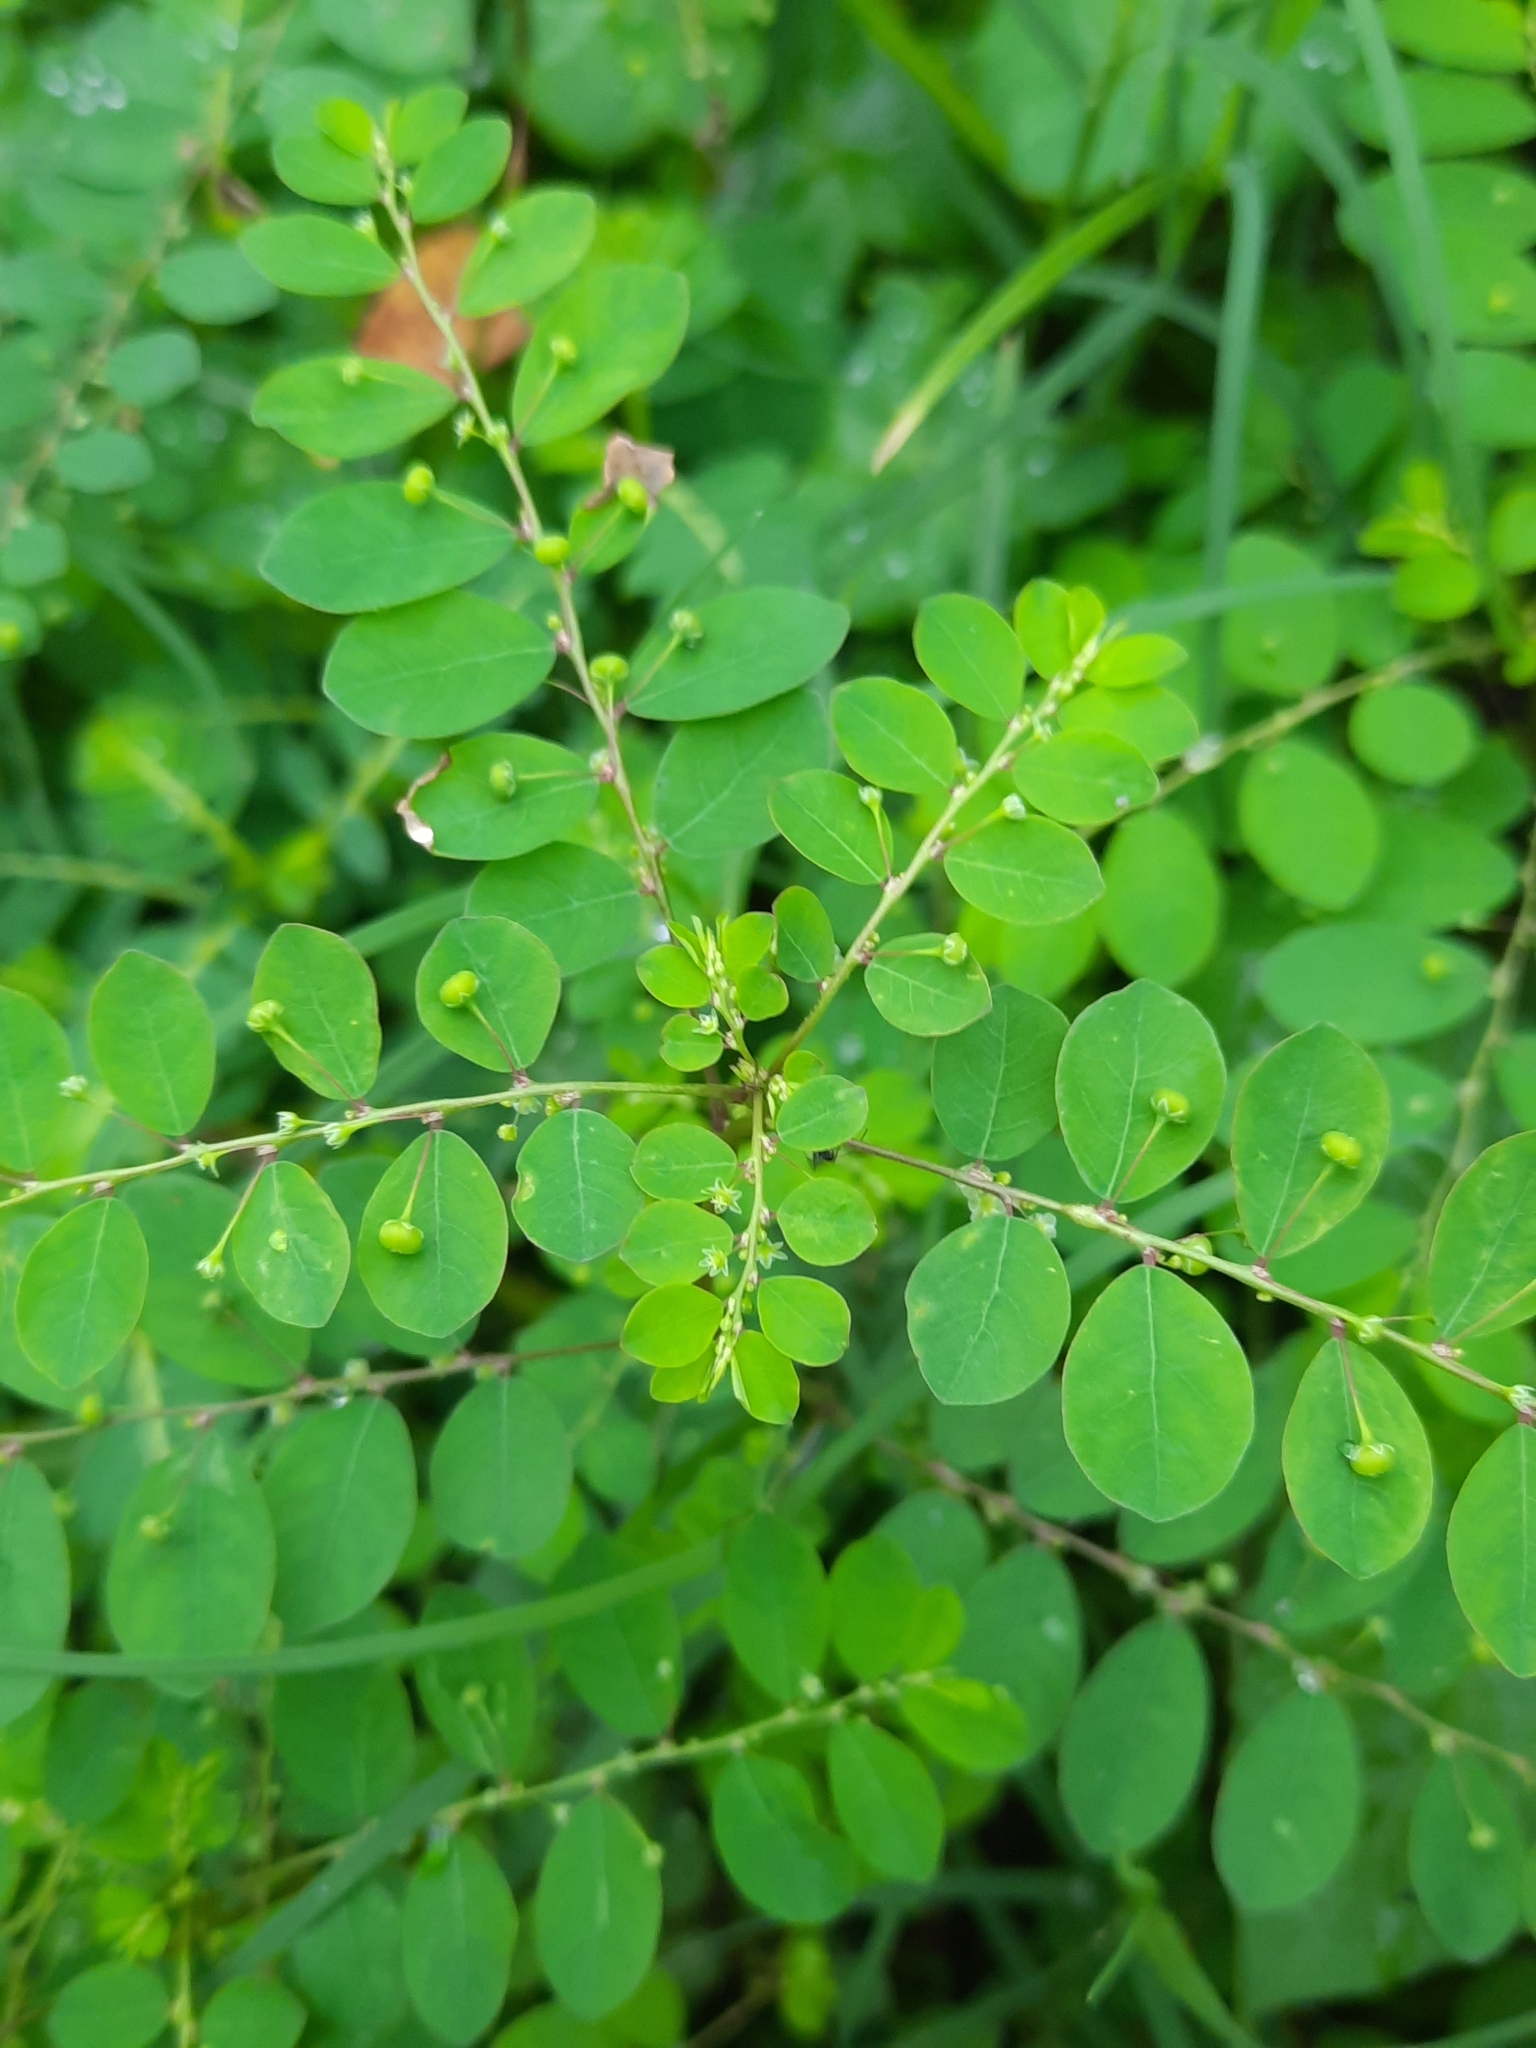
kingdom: Plantae
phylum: Tracheophyta
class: Magnoliopsida
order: Malpighiales
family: Phyllanthaceae
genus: Phyllanthus
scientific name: Phyllanthus tenellus
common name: Mascarene island leaf-flower
